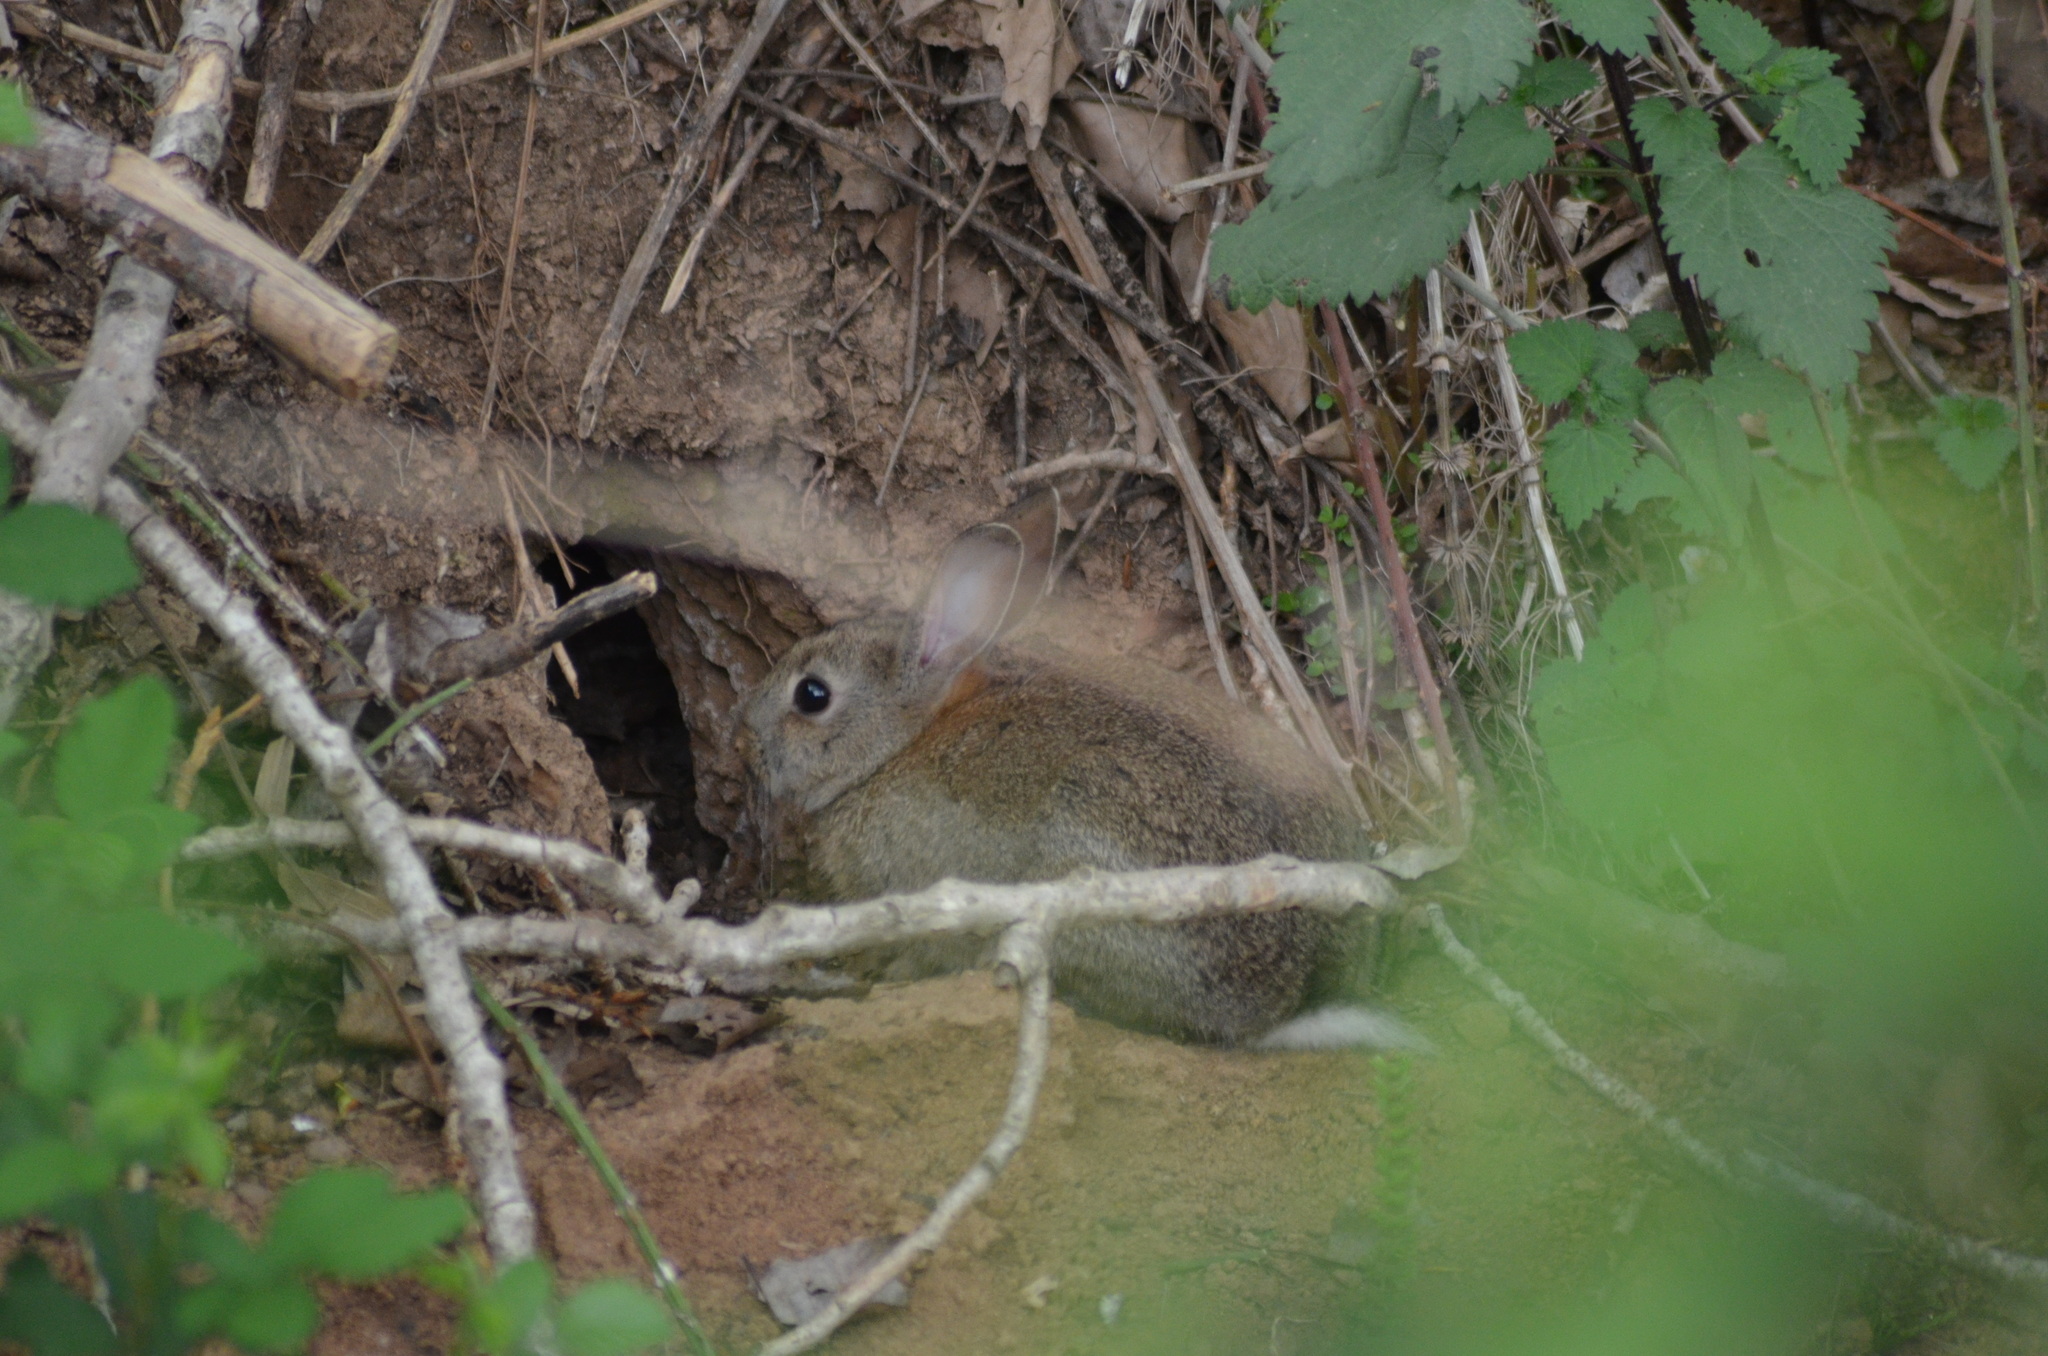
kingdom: Animalia
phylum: Chordata
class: Mammalia
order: Lagomorpha
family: Leporidae
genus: Oryctolagus
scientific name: Oryctolagus cuniculus
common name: European rabbit
